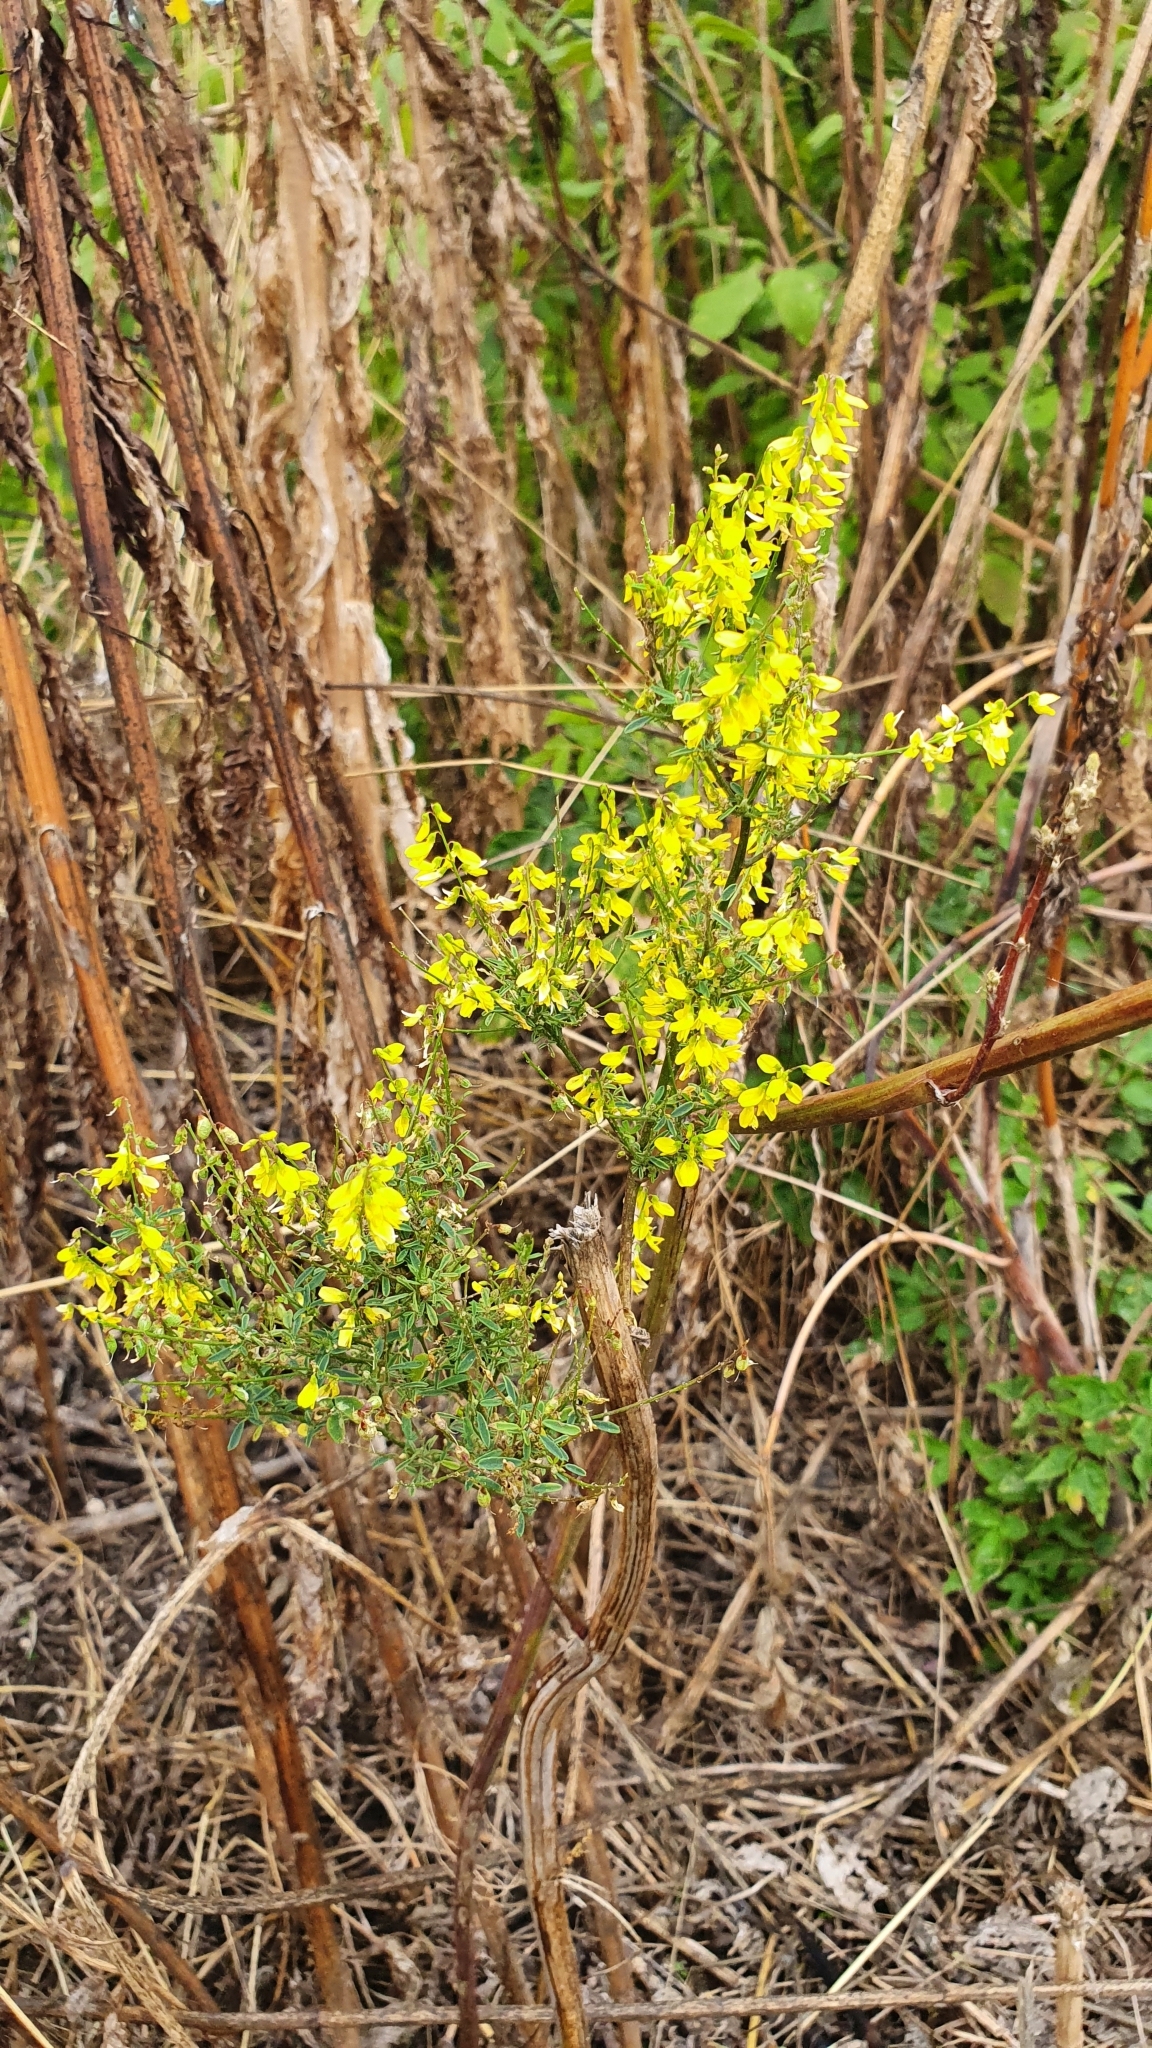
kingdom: Plantae
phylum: Tracheophyta
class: Magnoliopsida
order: Fabales
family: Fabaceae
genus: Melilotus
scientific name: Melilotus officinalis
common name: Sweetclover
